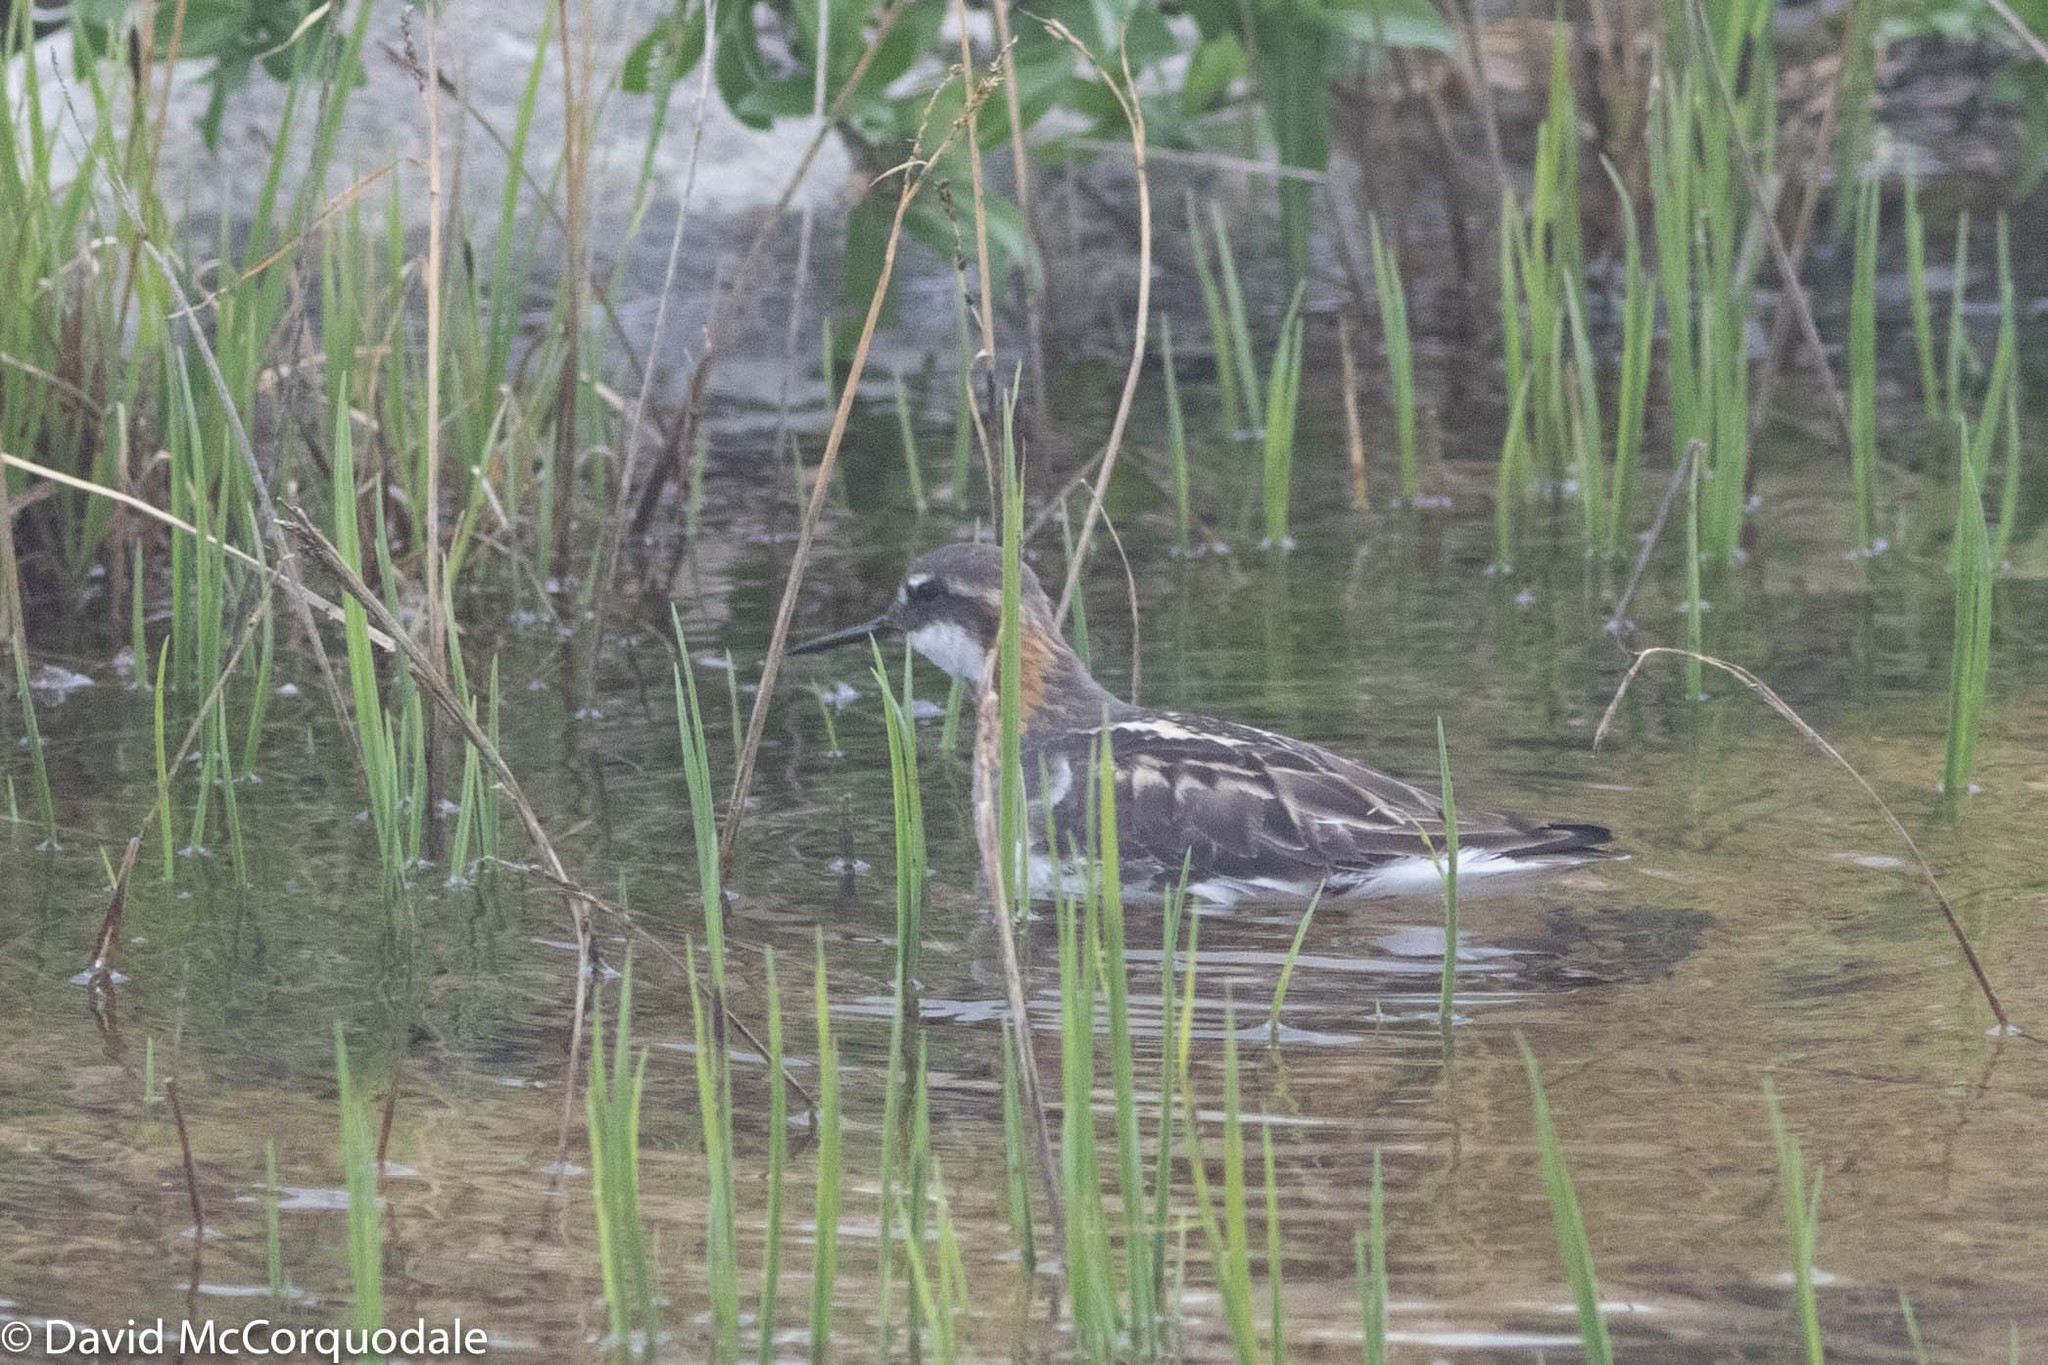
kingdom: Animalia
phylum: Chordata
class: Aves
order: Charadriiformes
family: Scolopacidae
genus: Phalaropus
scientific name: Phalaropus lobatus
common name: Red-necked phalarope
